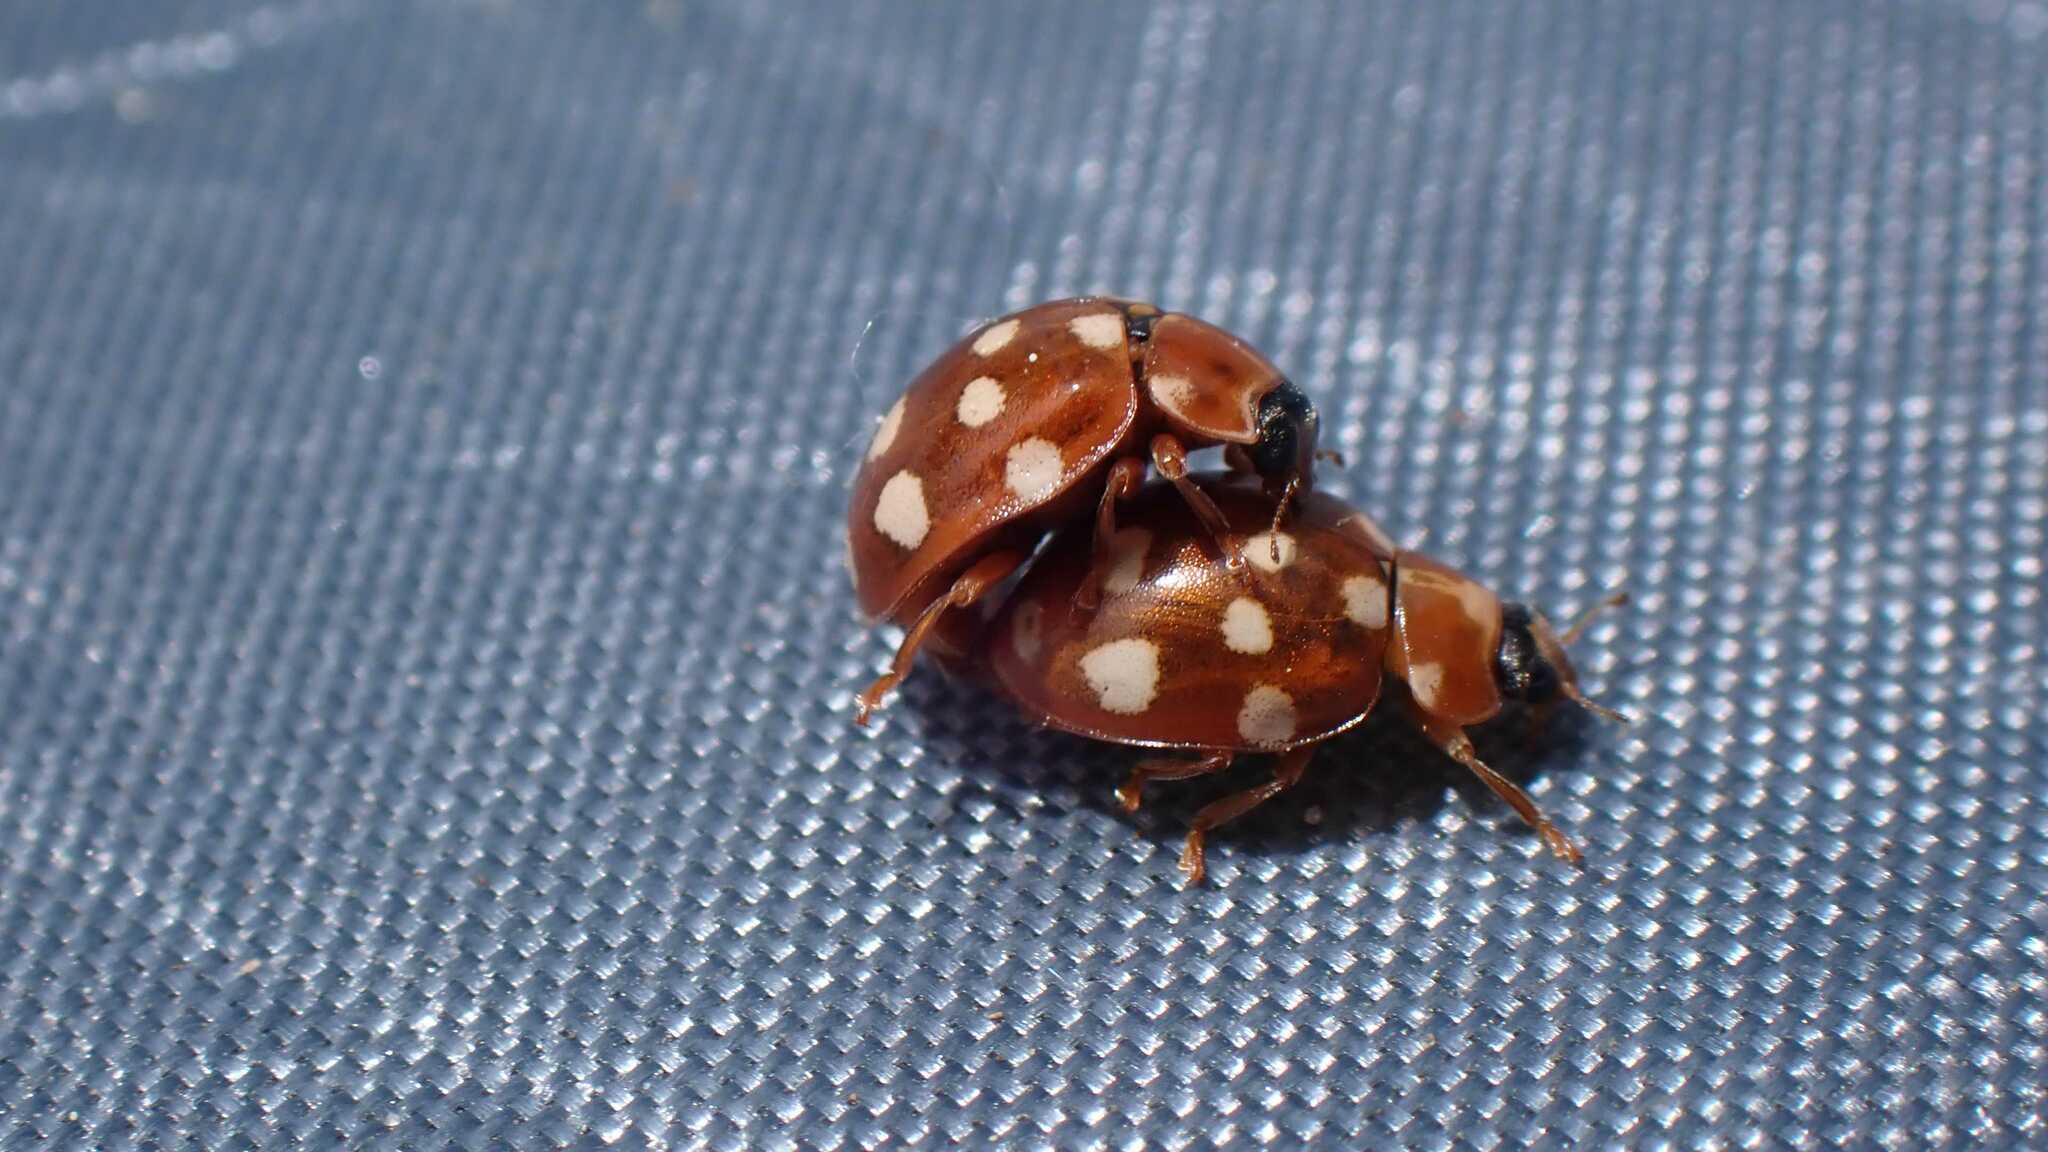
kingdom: Animalia
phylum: Arthropoda
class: Insecta
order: Coleoptera
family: Coccinellidae
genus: Calvia
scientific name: Calvia quatuordecimguttata
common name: Cream-spot ladybird
